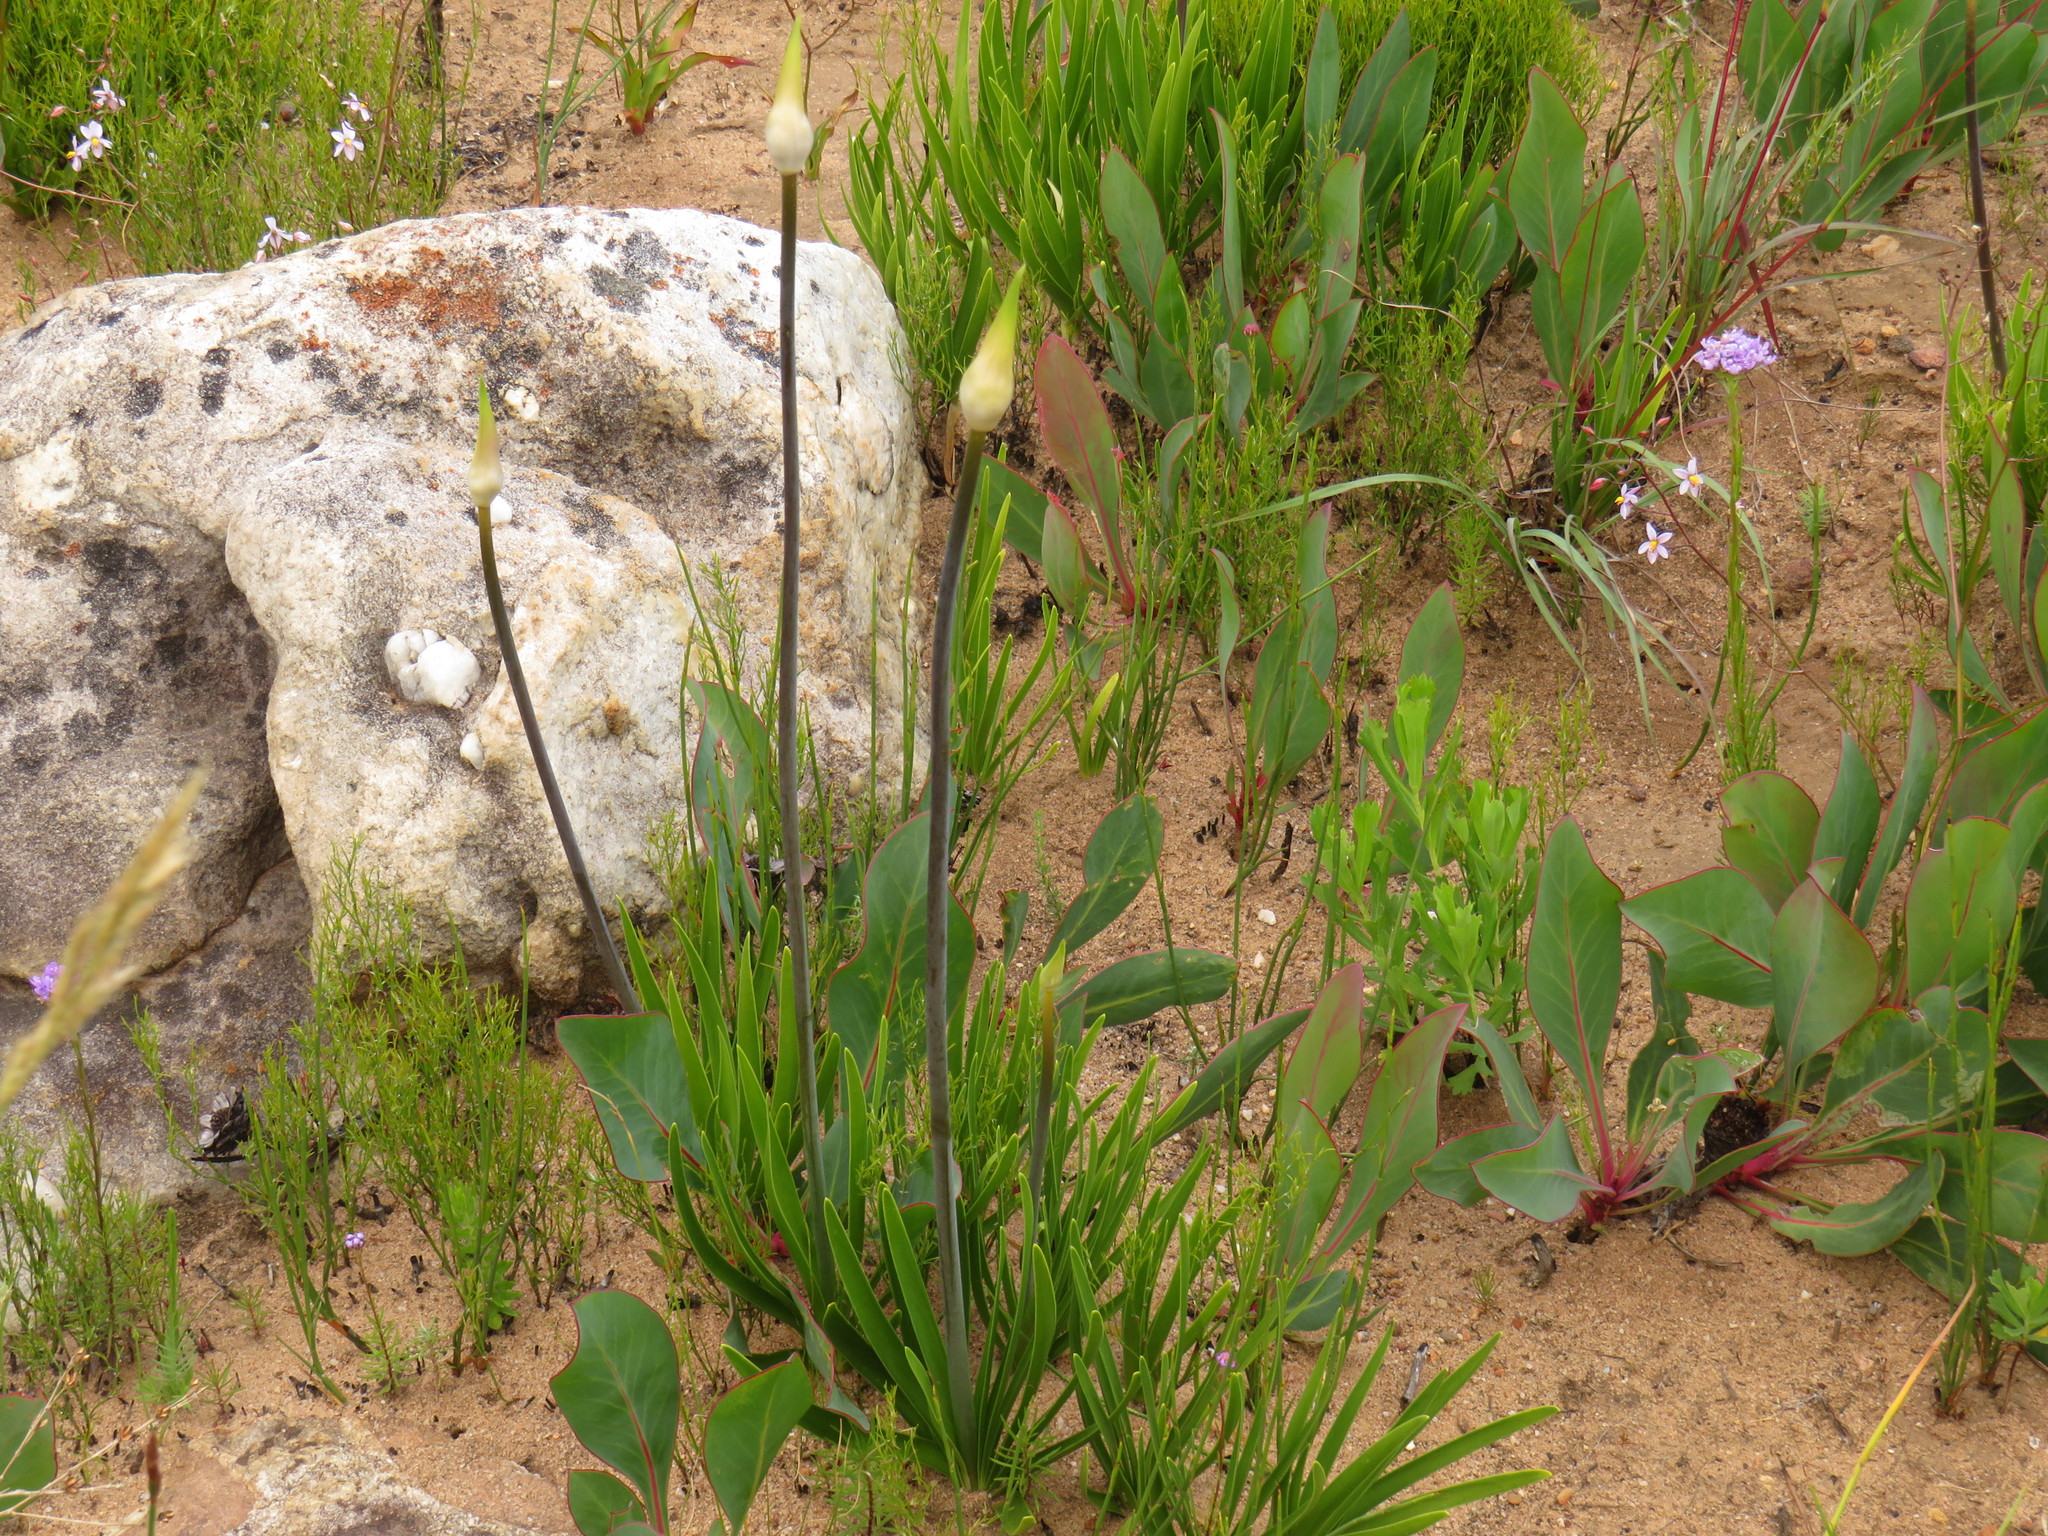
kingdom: Plantae
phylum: Tracheophyta
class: Liliopsida
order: Asparagales
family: Amaryllidaceae
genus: Agapanthus
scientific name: Agapanthus africanus
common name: Lily-of-the-nile
